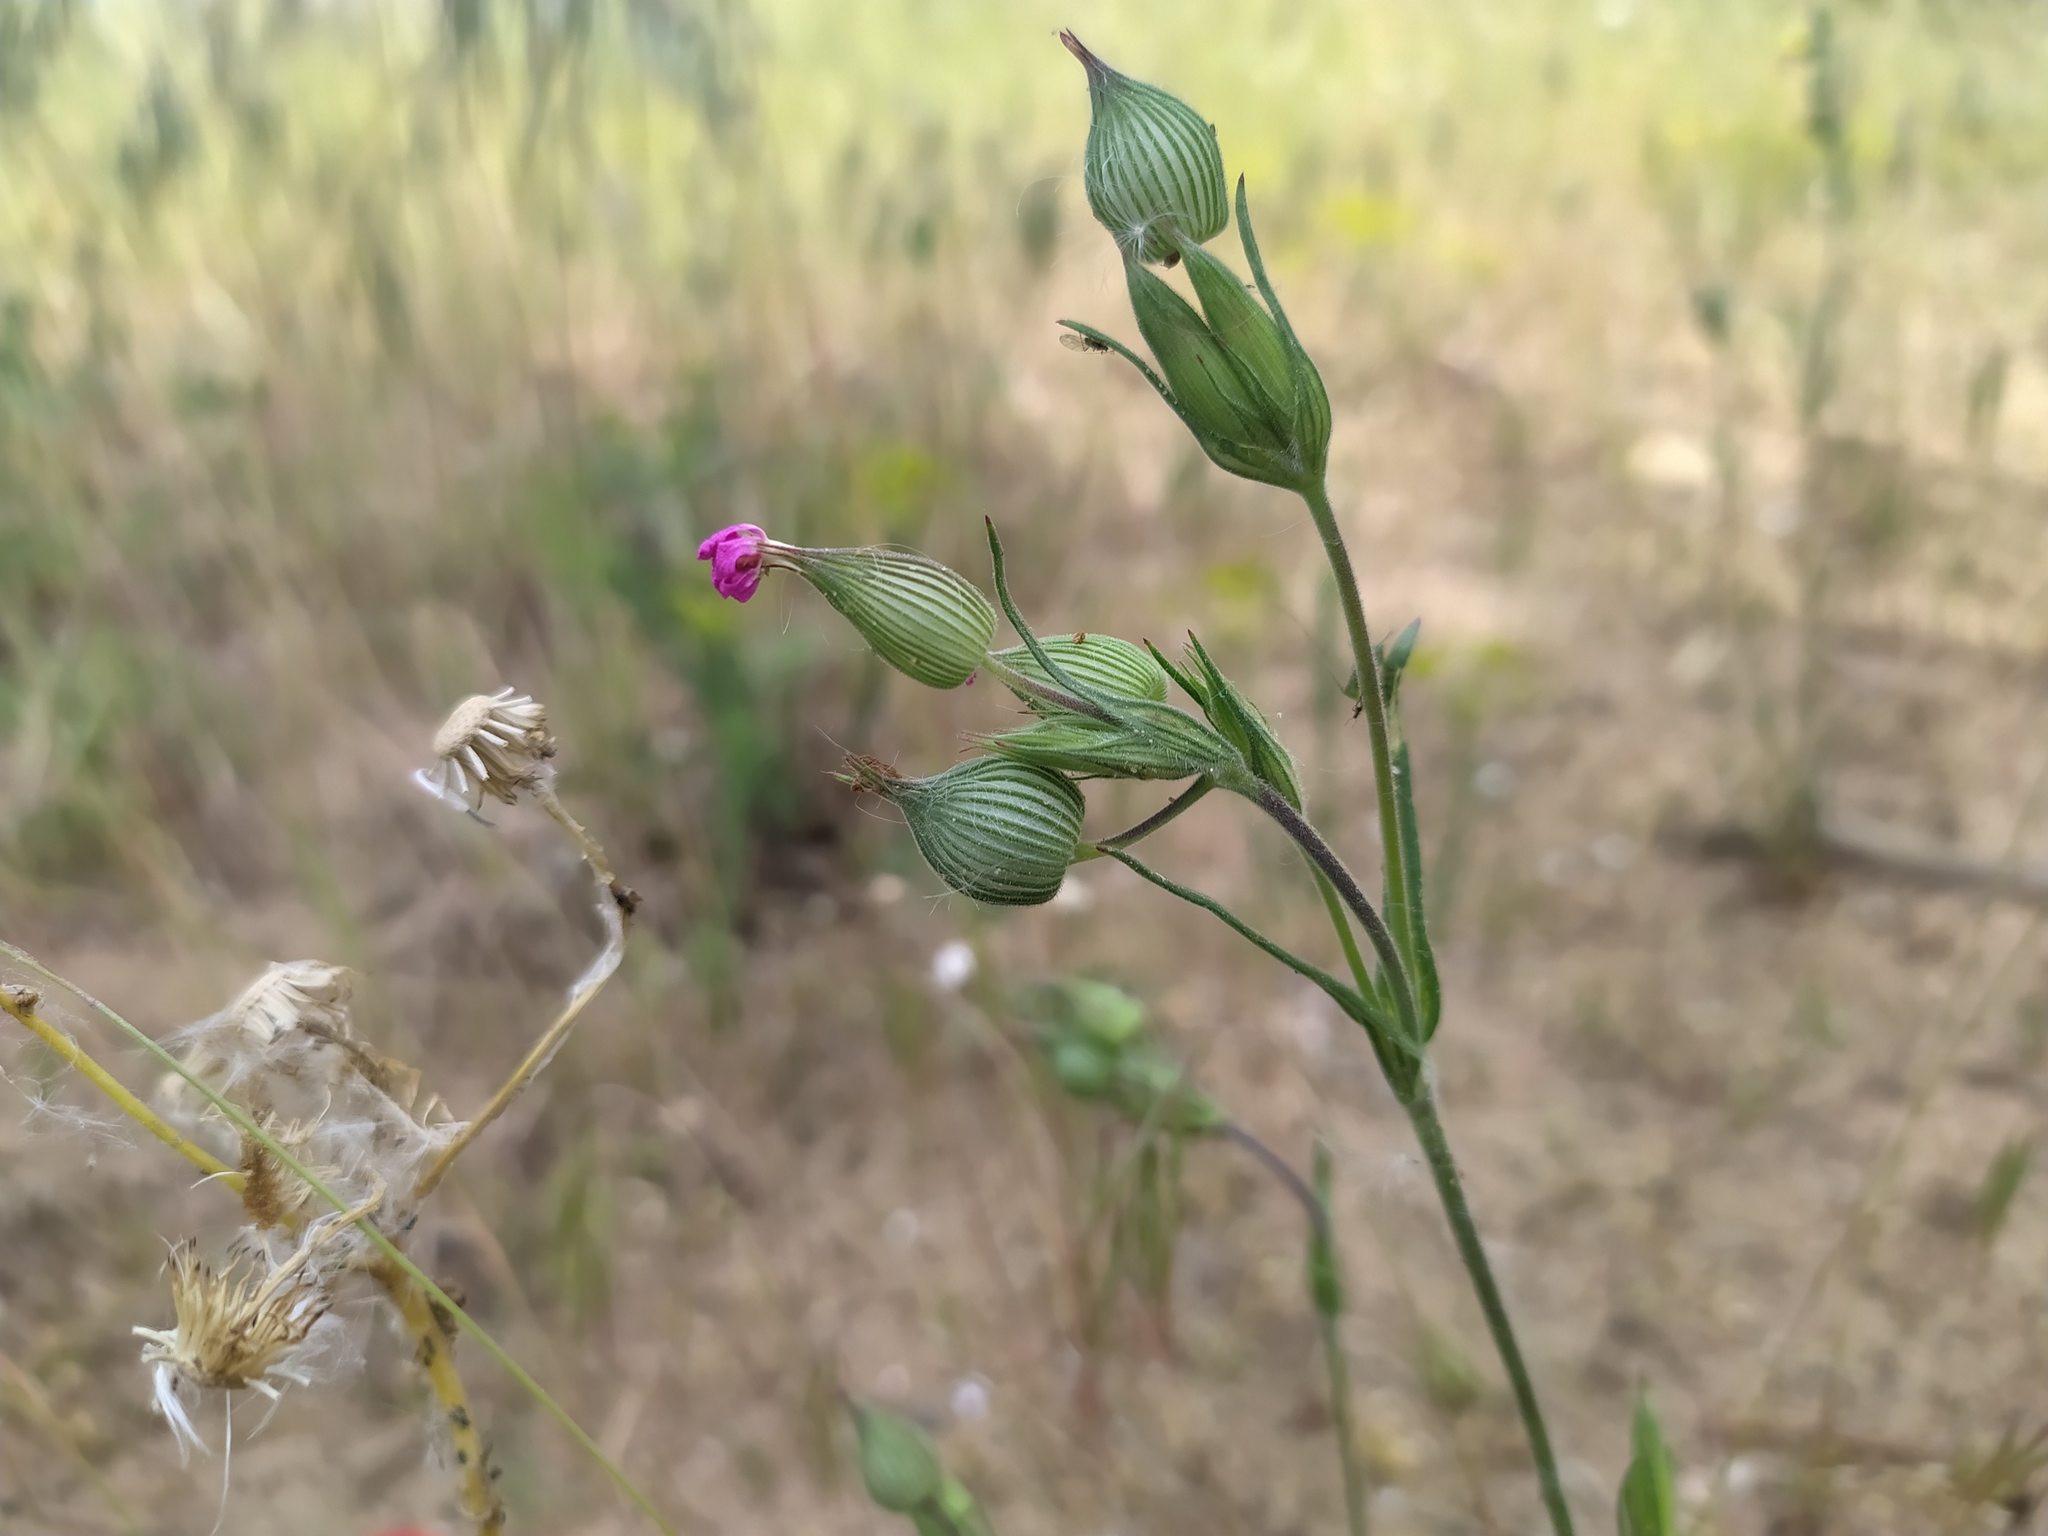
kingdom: Plantae
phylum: Tracheophyta
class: Magnoliopsida
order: Caryophyllales
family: Caryophyllaceae
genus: Silene
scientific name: Silene conica
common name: Sand catchfly
